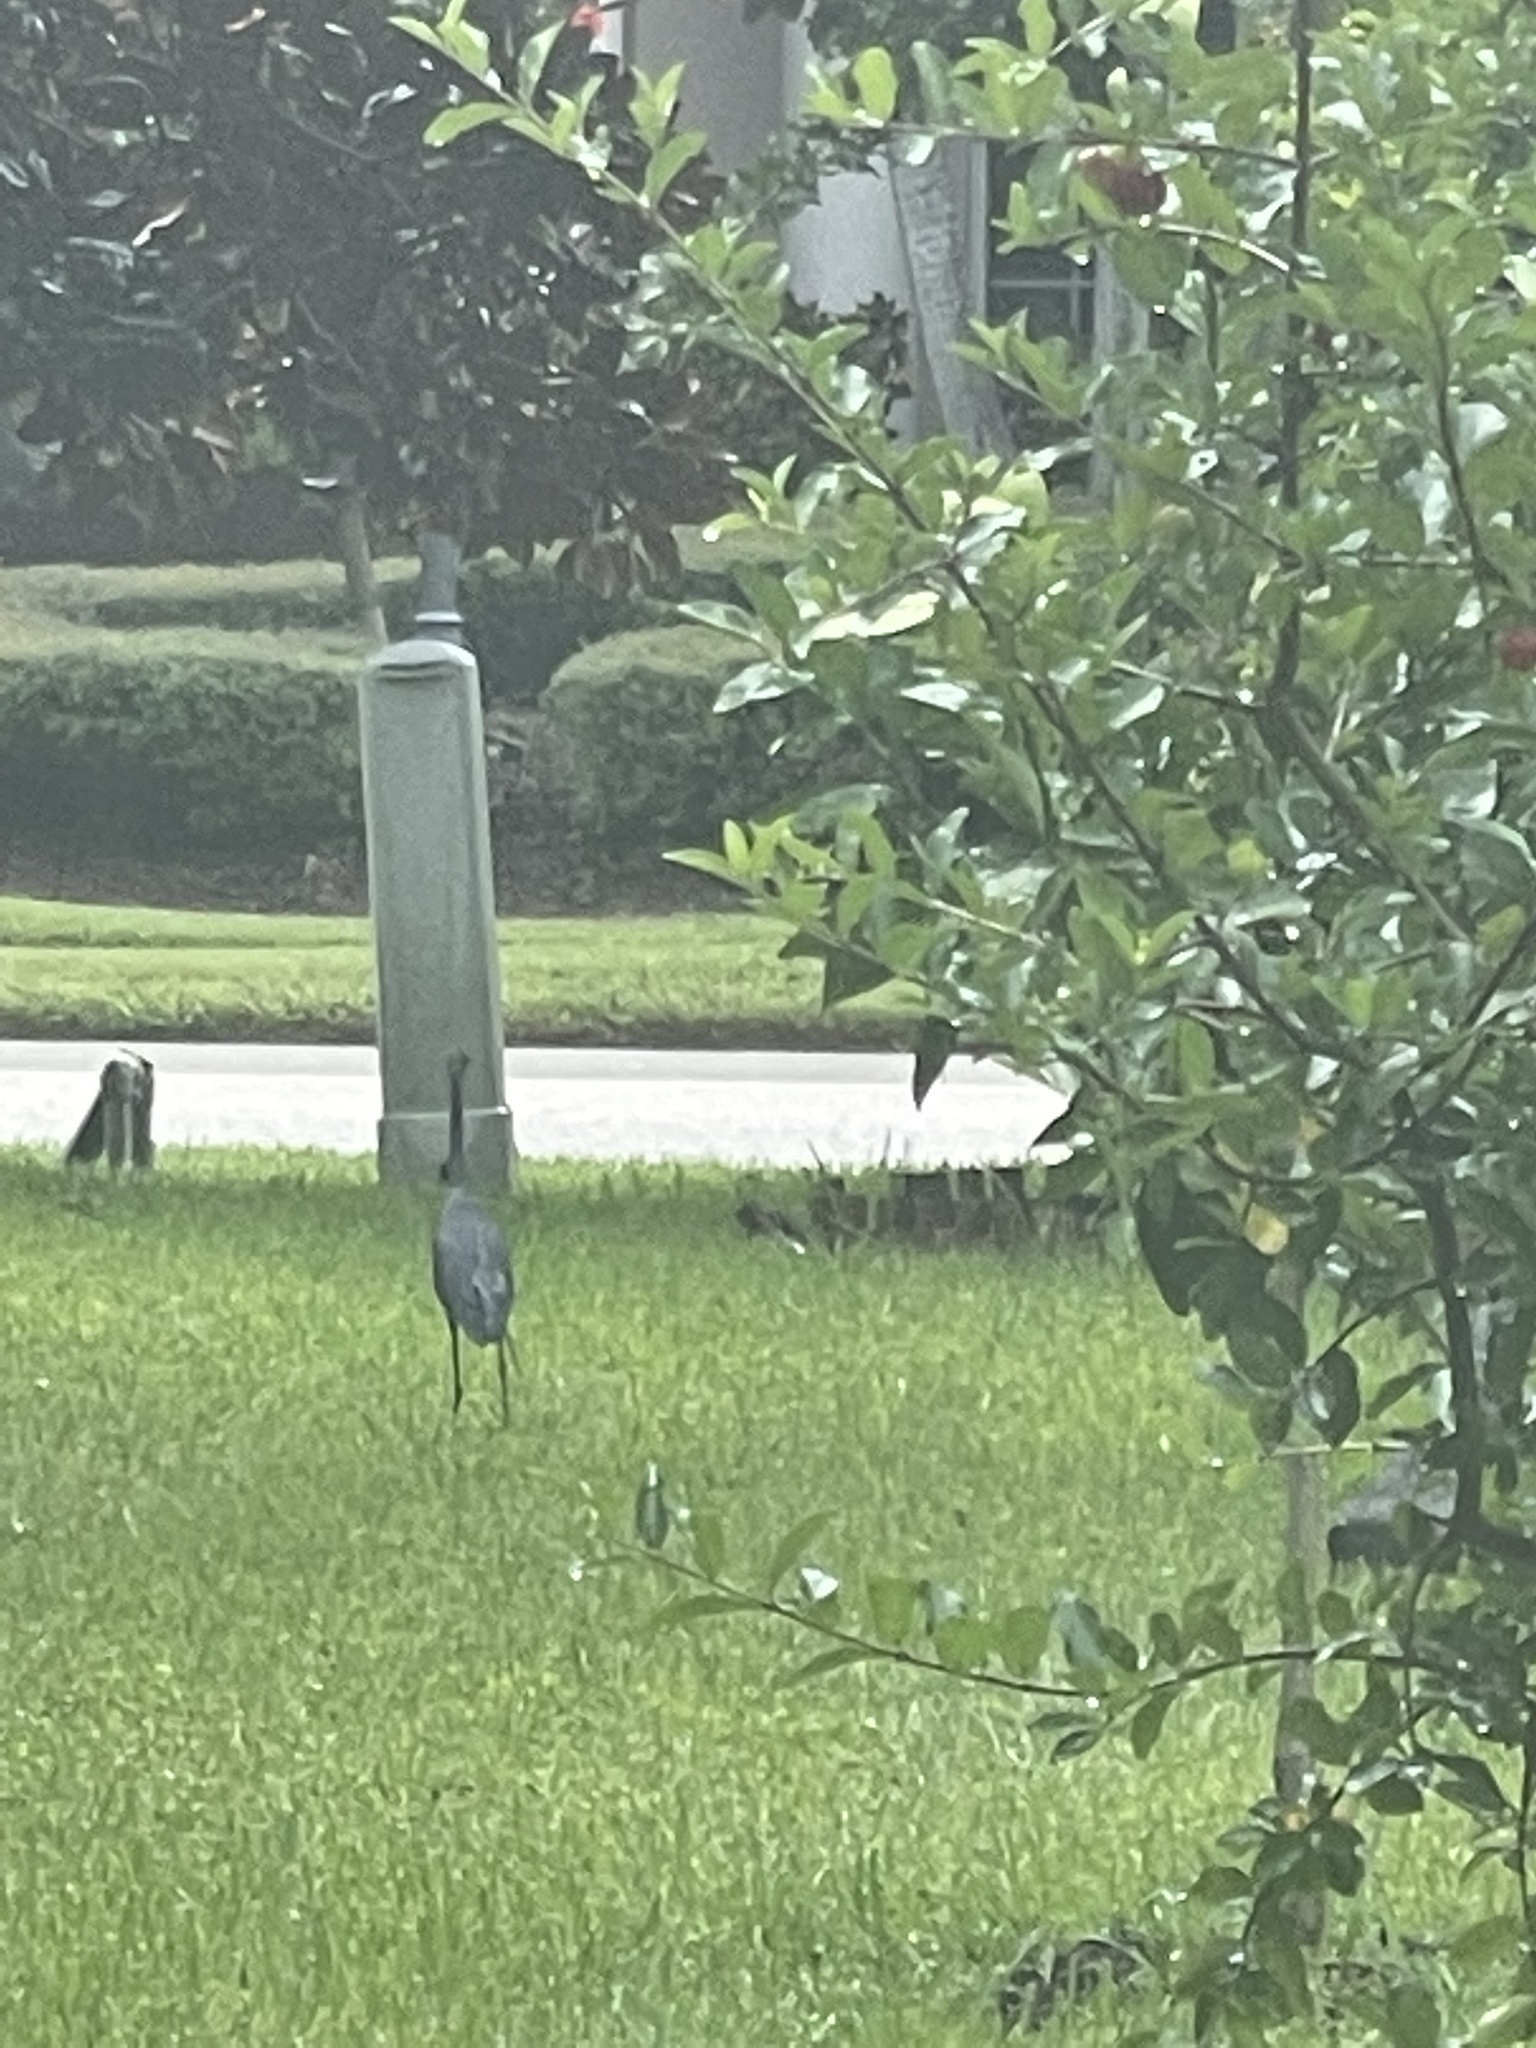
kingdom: Animalia
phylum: Chordata
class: Aves
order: Pelecaniformes
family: Ardeidae
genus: Egretta
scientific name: Egretta caerulea
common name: Little blue heron
